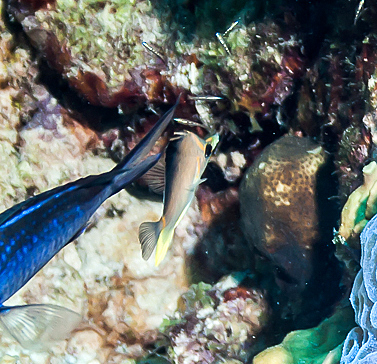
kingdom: Animalia
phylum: Chordata
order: Perciformes
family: Chaetodontidae
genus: Prognathodes
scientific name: Prognathodes aculeatus
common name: Longsnout butterflyfish
